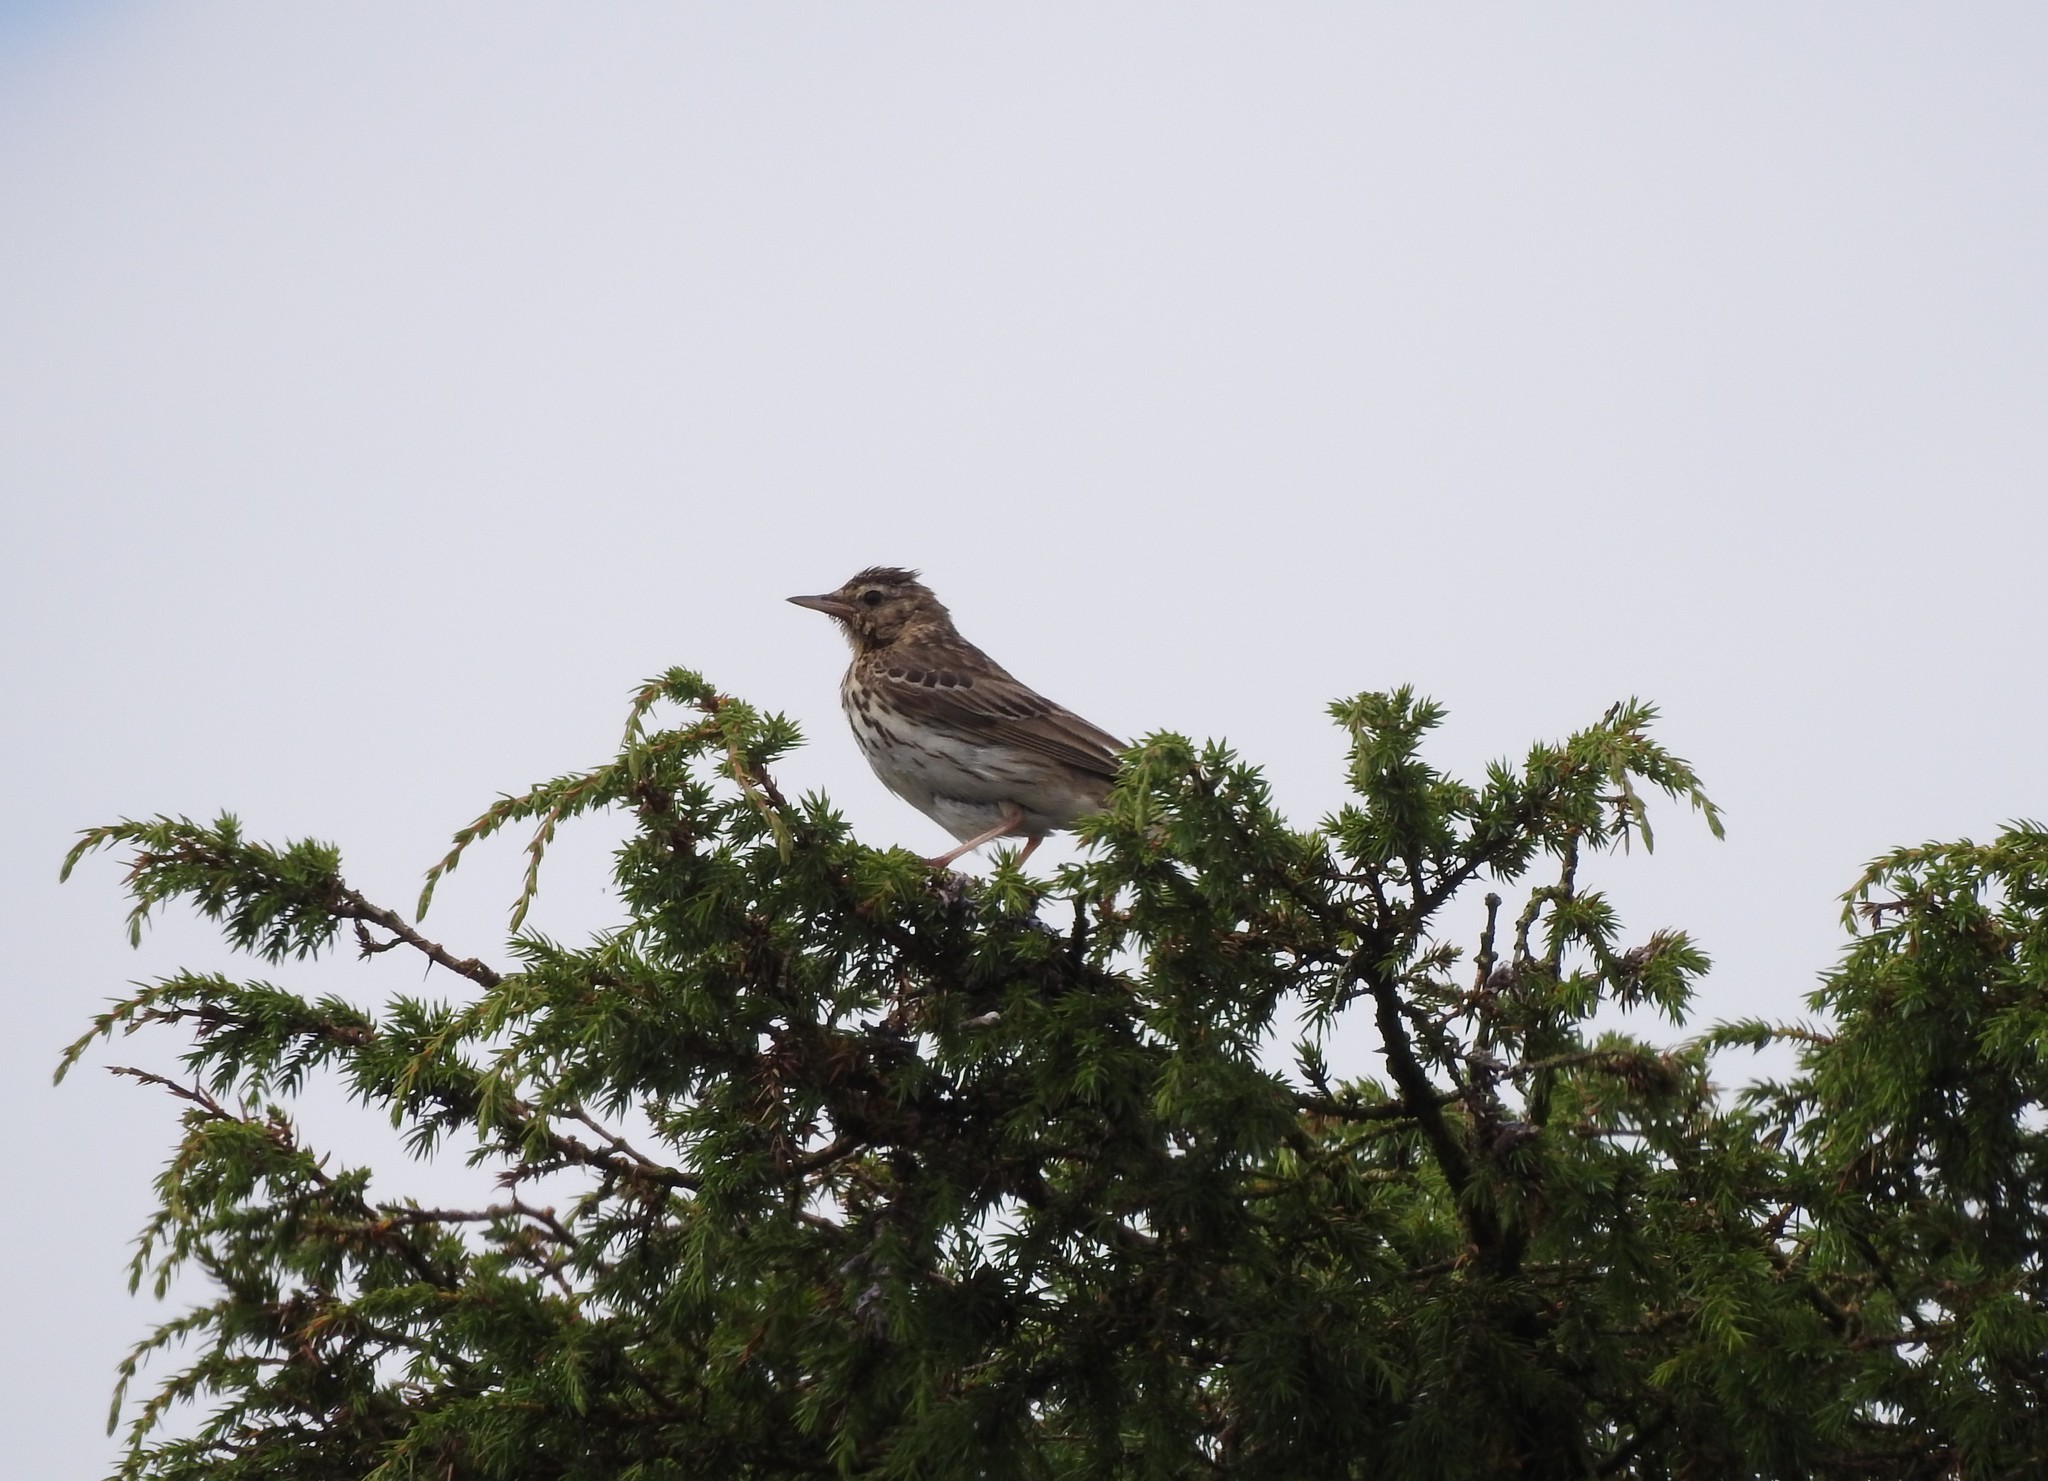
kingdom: Animalia
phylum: Chordata
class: Aves
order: Passeriformes
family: Motacillidae
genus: Anthus
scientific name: Anthus trivialis
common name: Tree pipit
